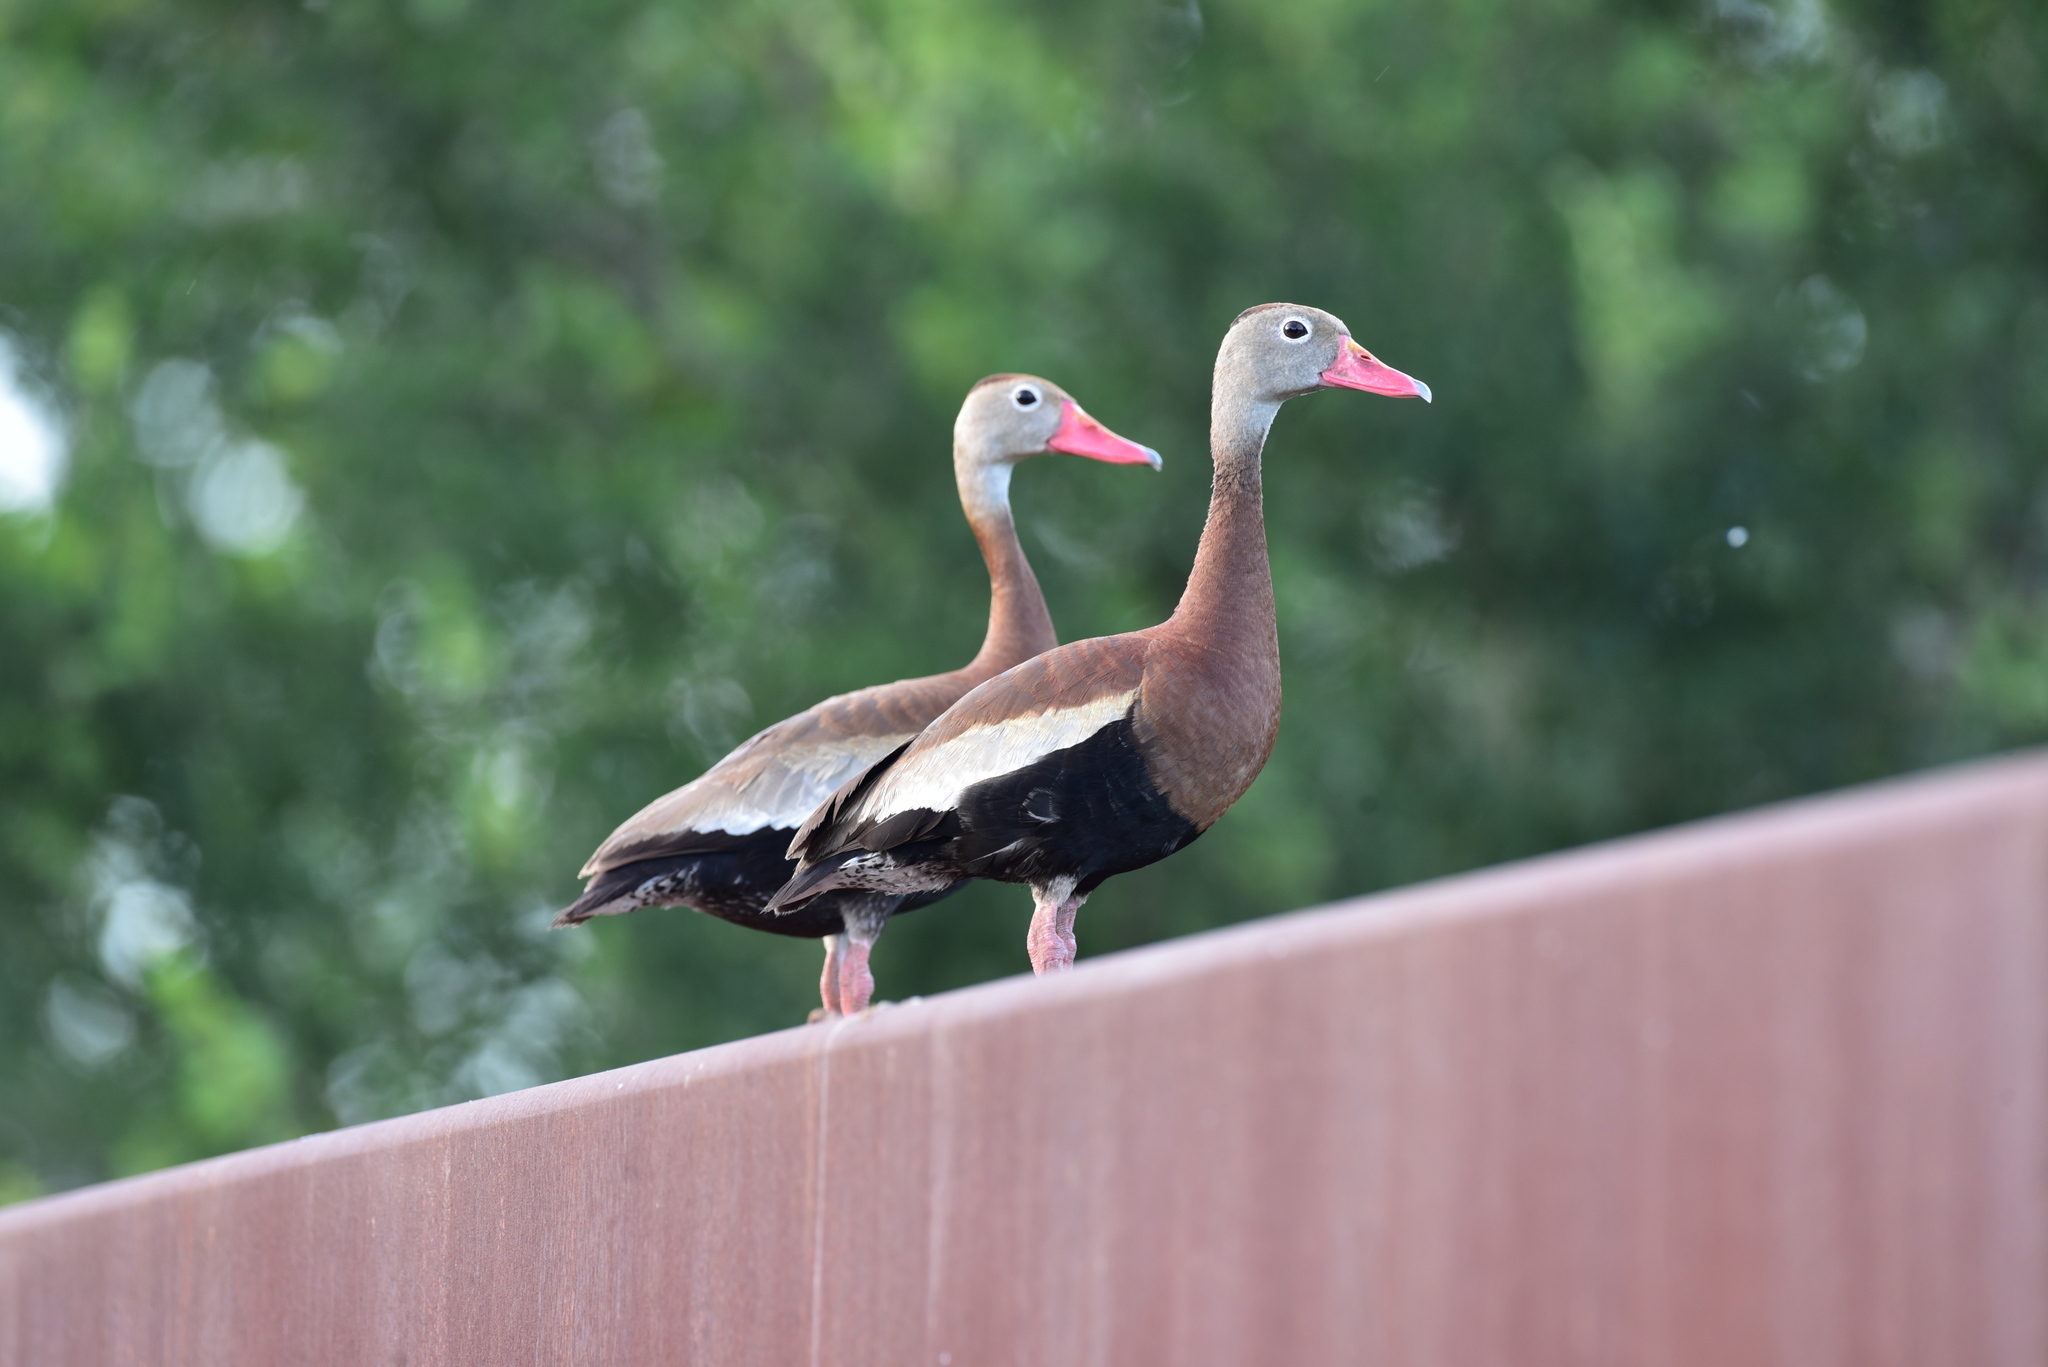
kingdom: Animalia
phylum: Chordata
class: Aves
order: Anseriformes
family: Anatidae
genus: Dendrocygna
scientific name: Dendrocygna autumnalis
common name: Black-bellied whistling duck
